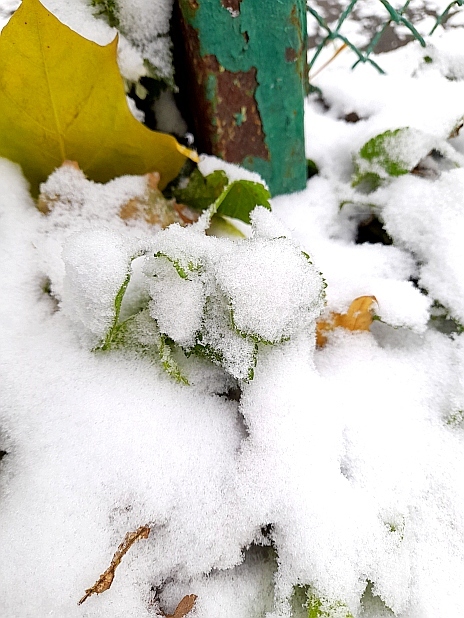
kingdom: Plantae
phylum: Tracheophyta
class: Magnoliopsida
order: Lamiales
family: Lamiaceae
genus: Lamium
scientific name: Lamium album
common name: White dead-nettle
